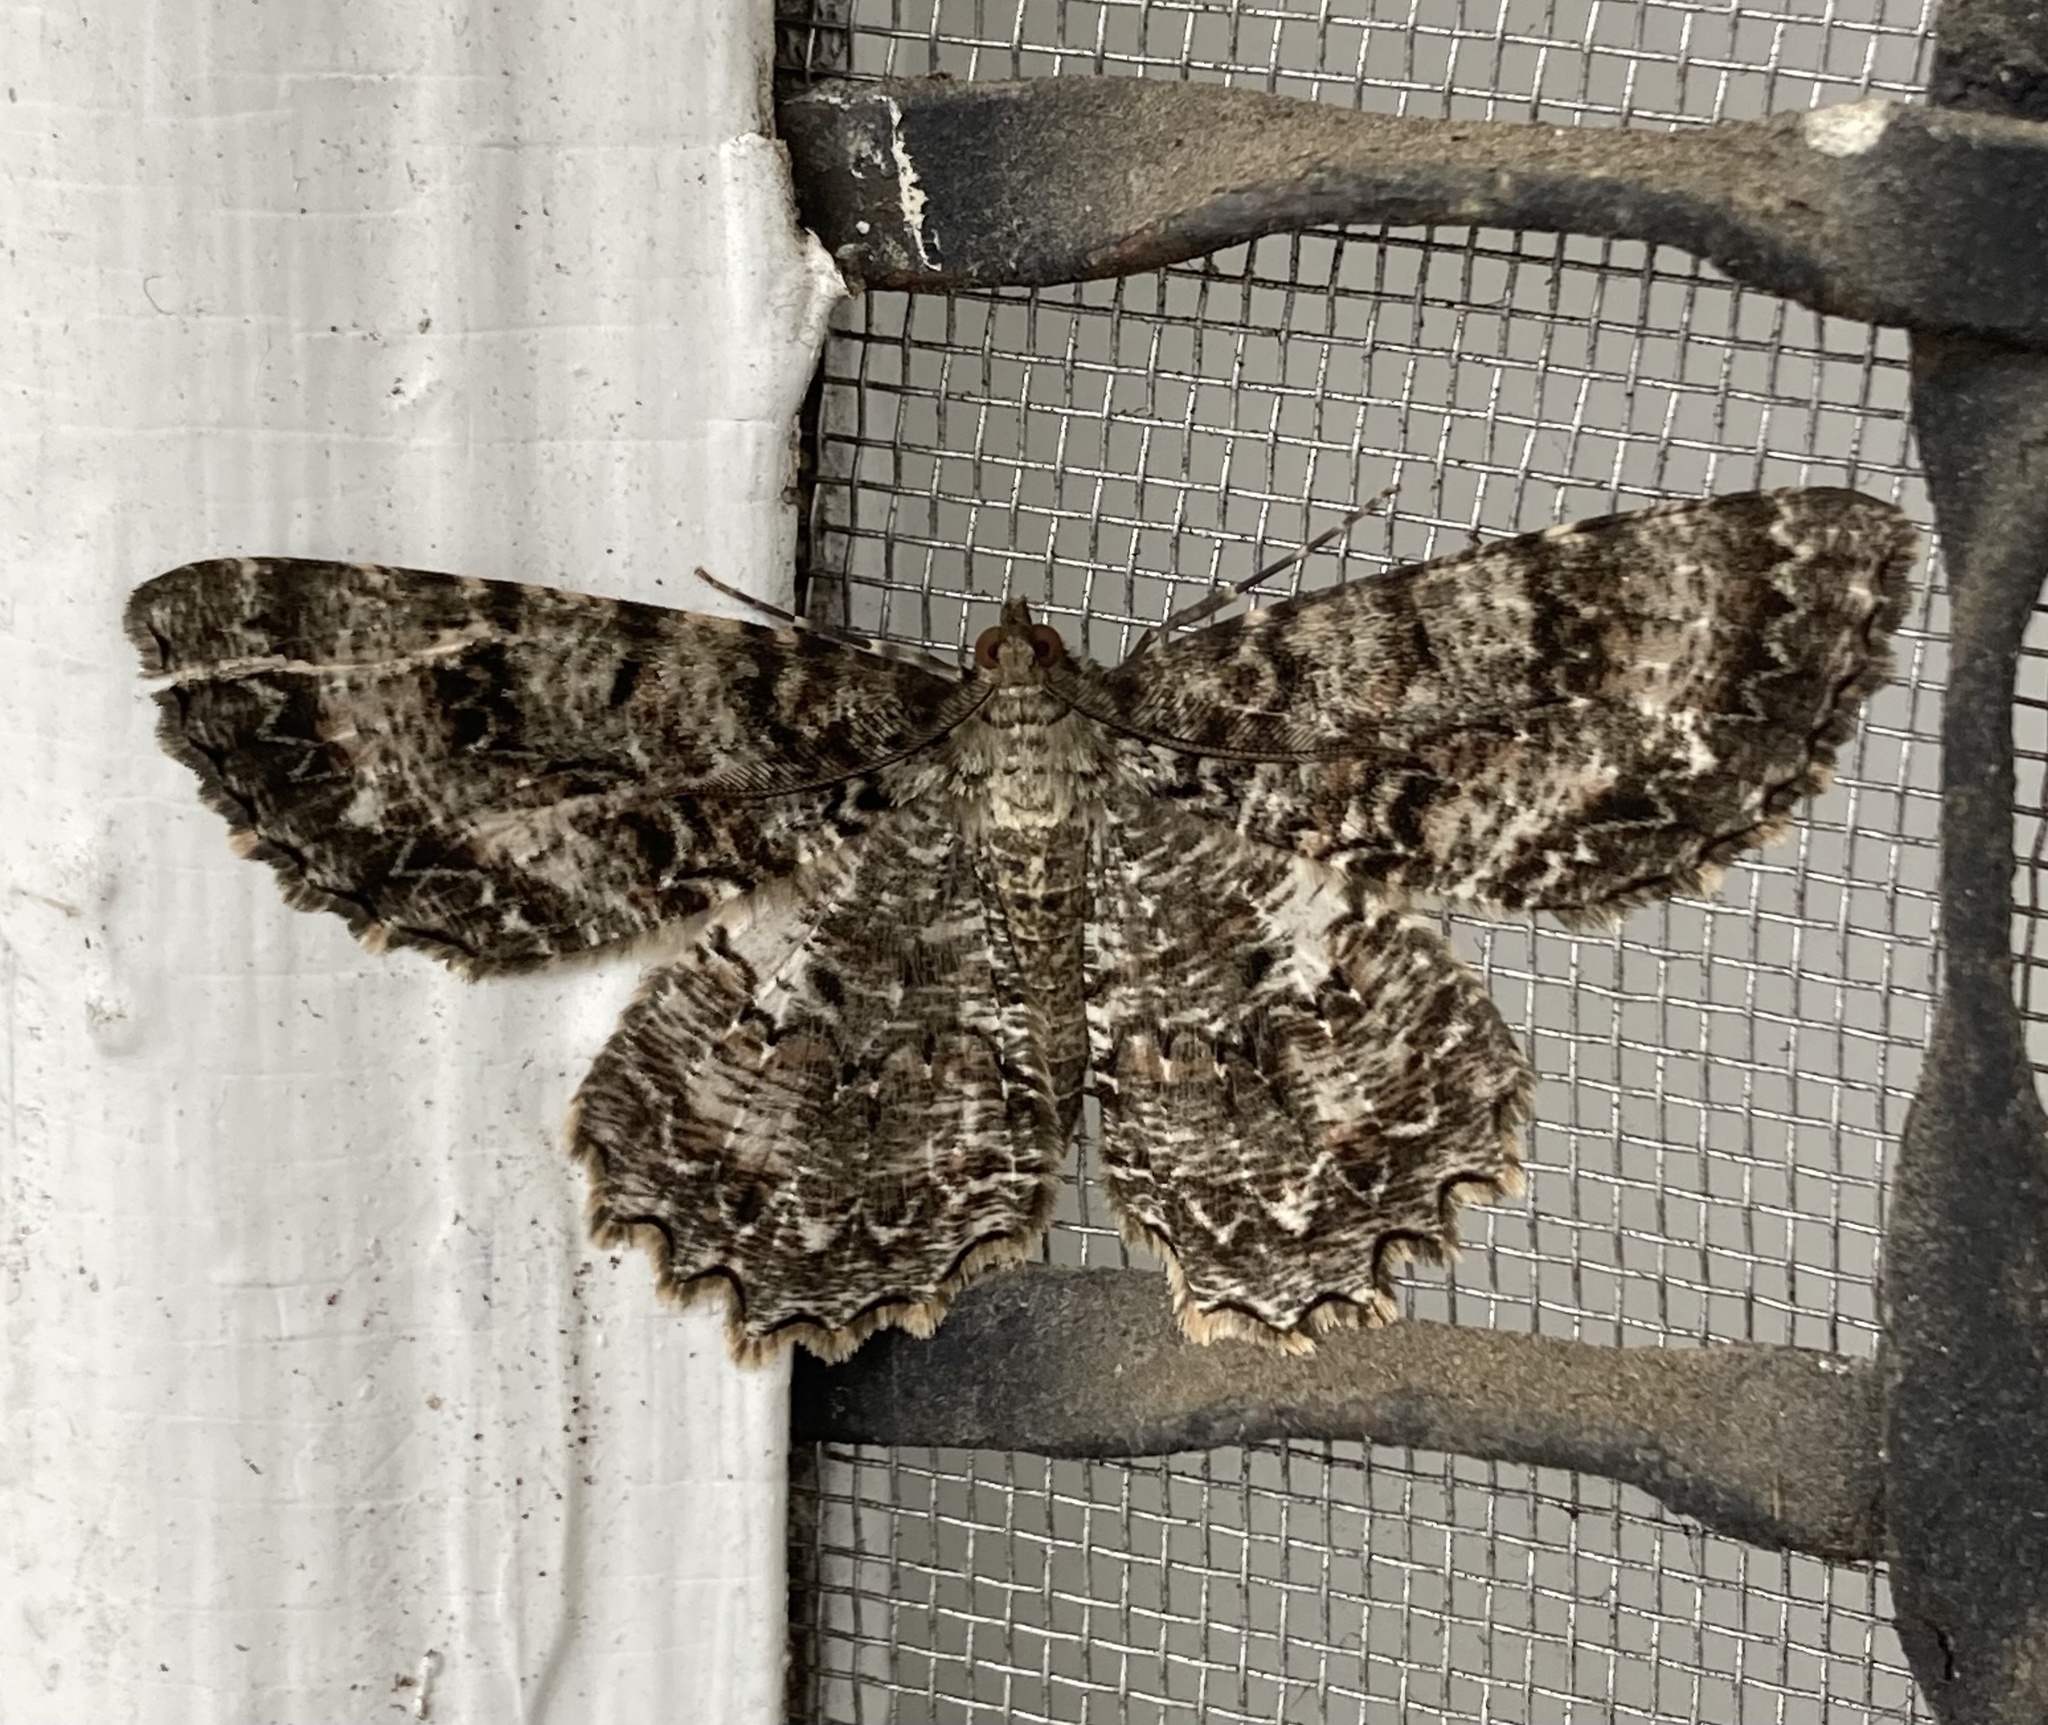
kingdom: Animalia
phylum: Arthropoda
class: Insecta
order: Lepidoptera
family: Geometridae
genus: Epimecis
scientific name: Epimecis hortaria
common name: Tulip-tree beauty
